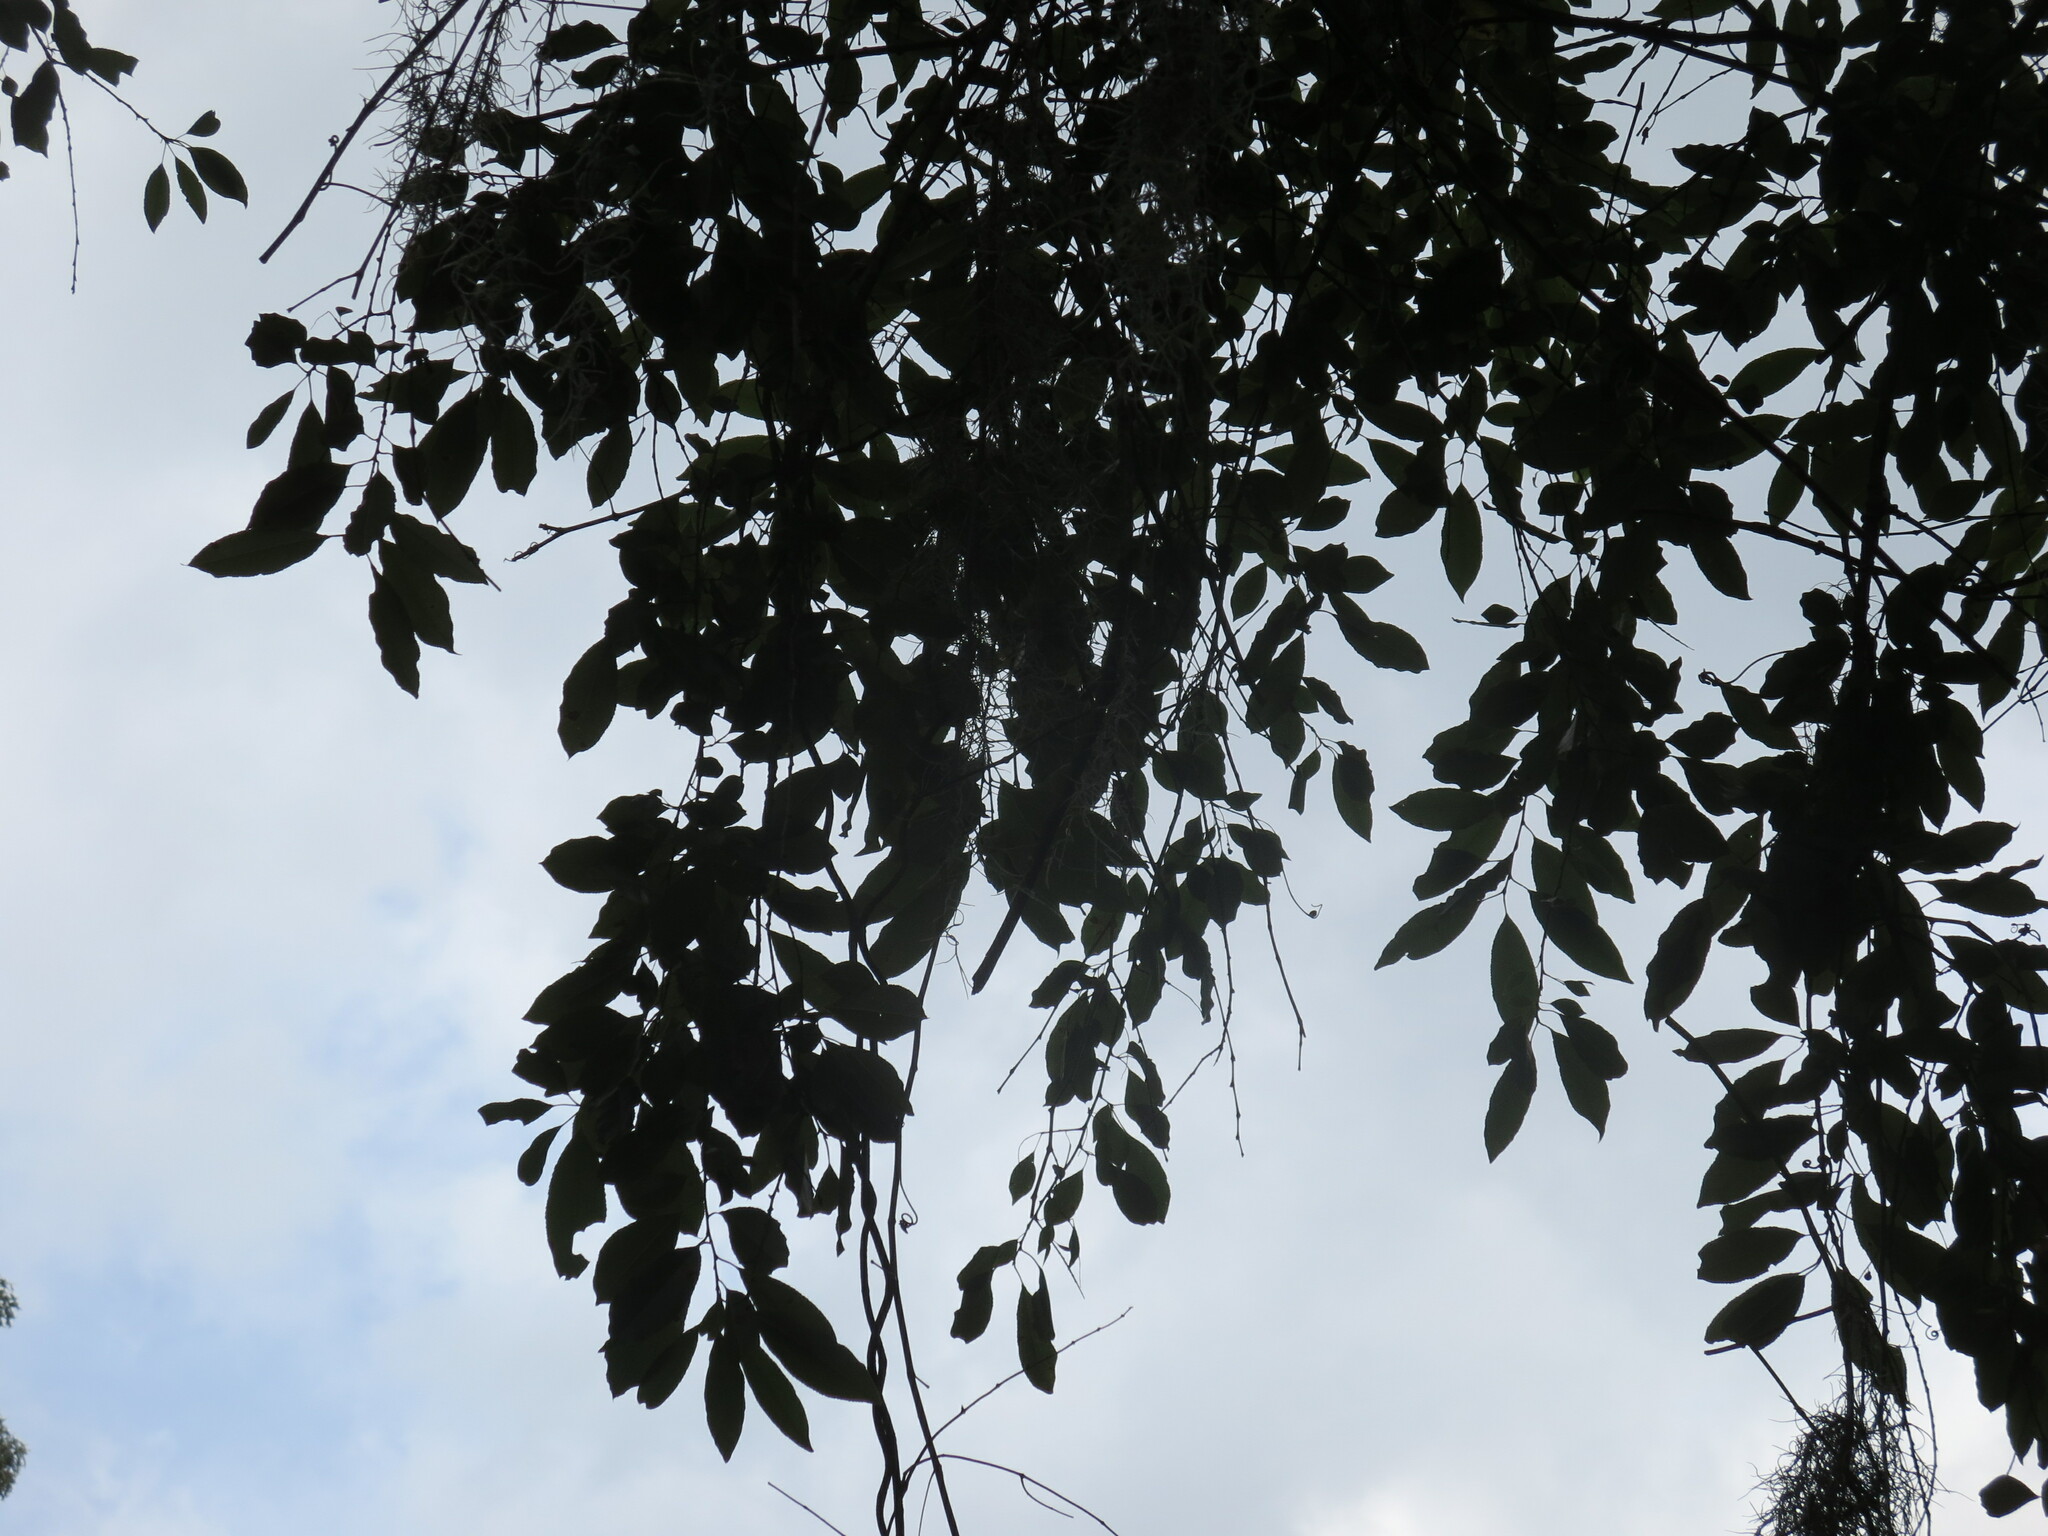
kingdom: Plantae
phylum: Tracheophyta
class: Magnoliopsida
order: Rosales
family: Rosaceae
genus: Prunus
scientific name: Prunus serotina
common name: Black cherry
